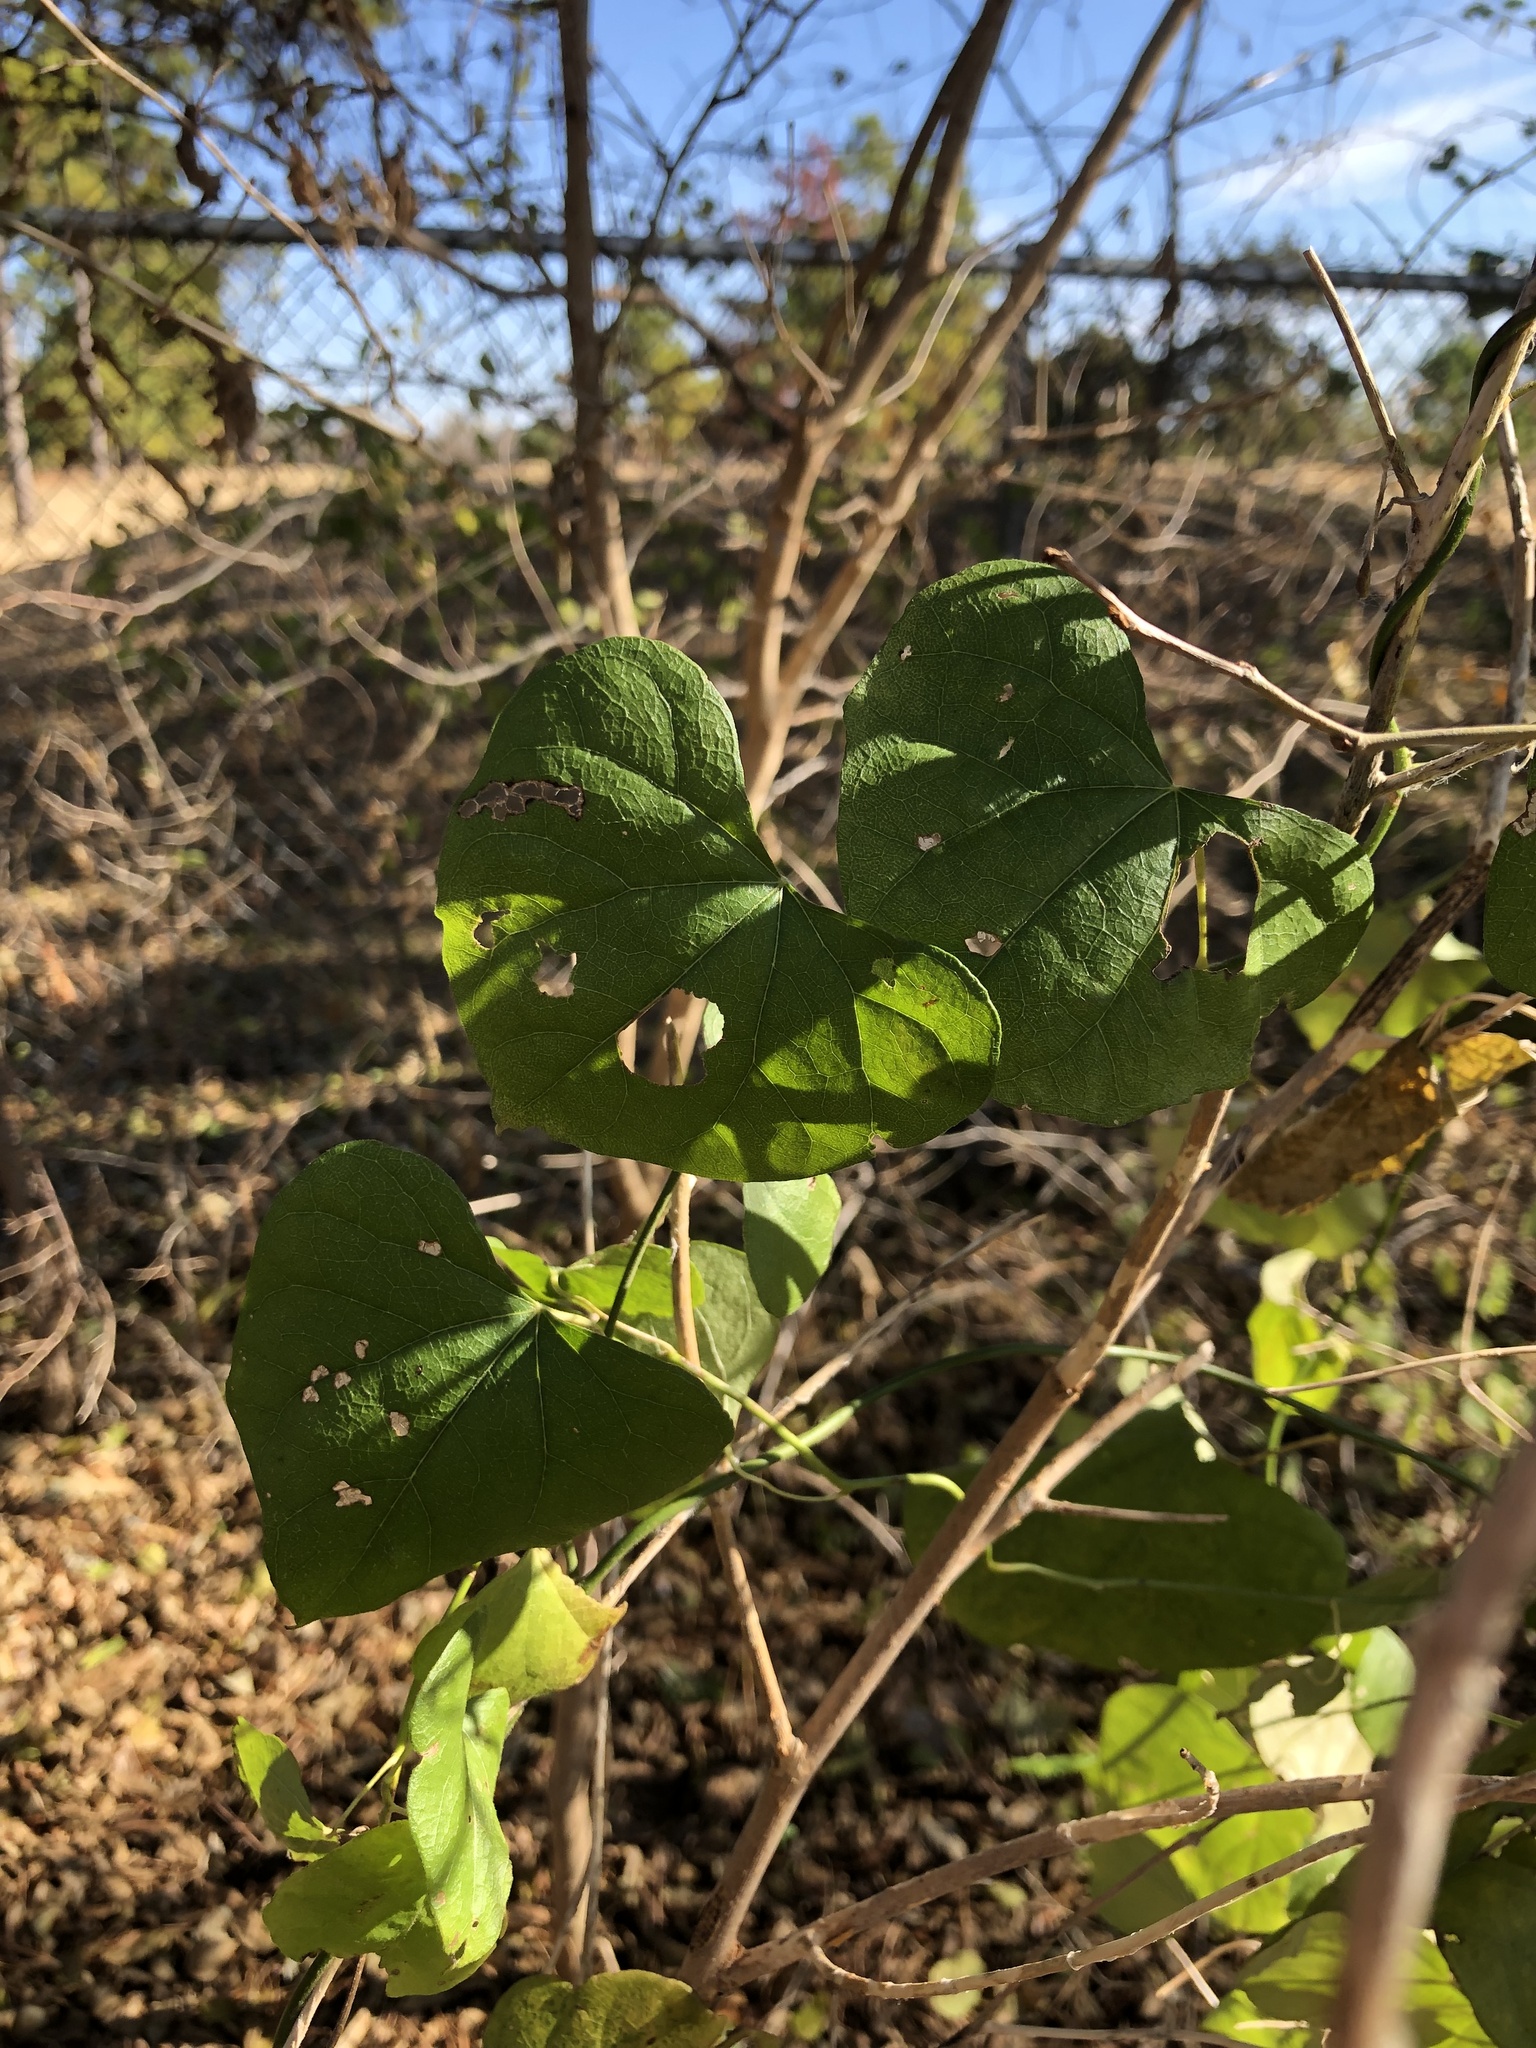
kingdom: Plantae
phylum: Tracheophyta
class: Magnoliopsida
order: Ranunculales
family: Menispermaceae
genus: Cocculus
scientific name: Cocculus carolinus
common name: Carolina moonseed
